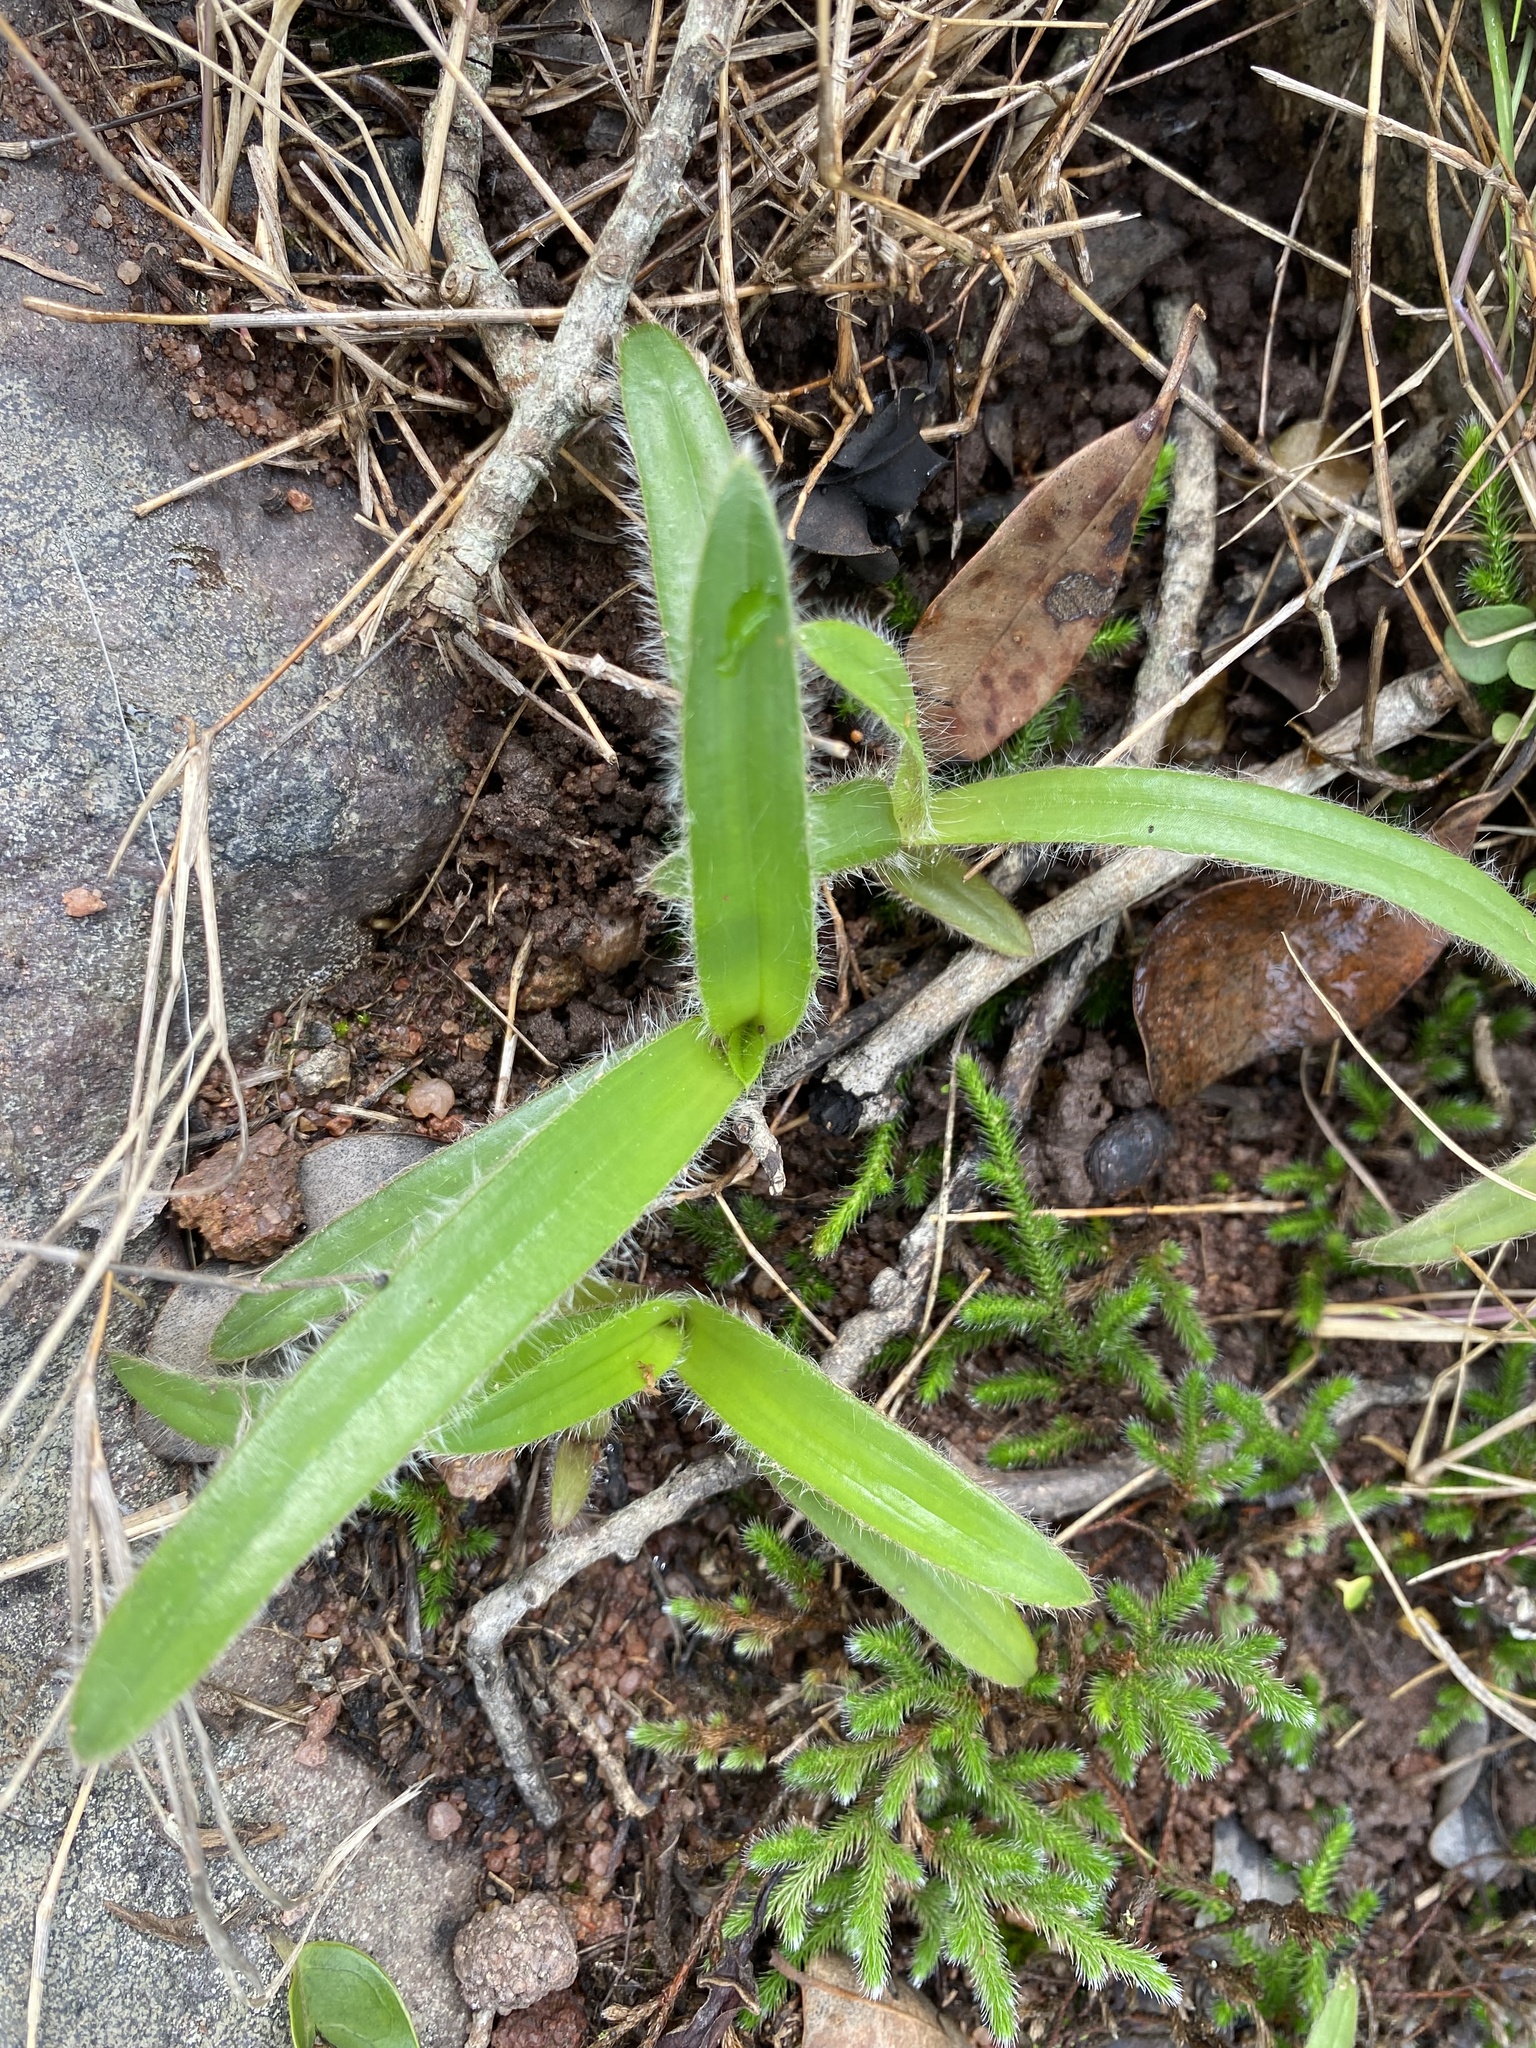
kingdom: Plantae
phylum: Tracheophyta
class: Liliopsida
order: Commelinales
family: Commelinaceae
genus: Cyanotis
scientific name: Cyanotis speciosa
